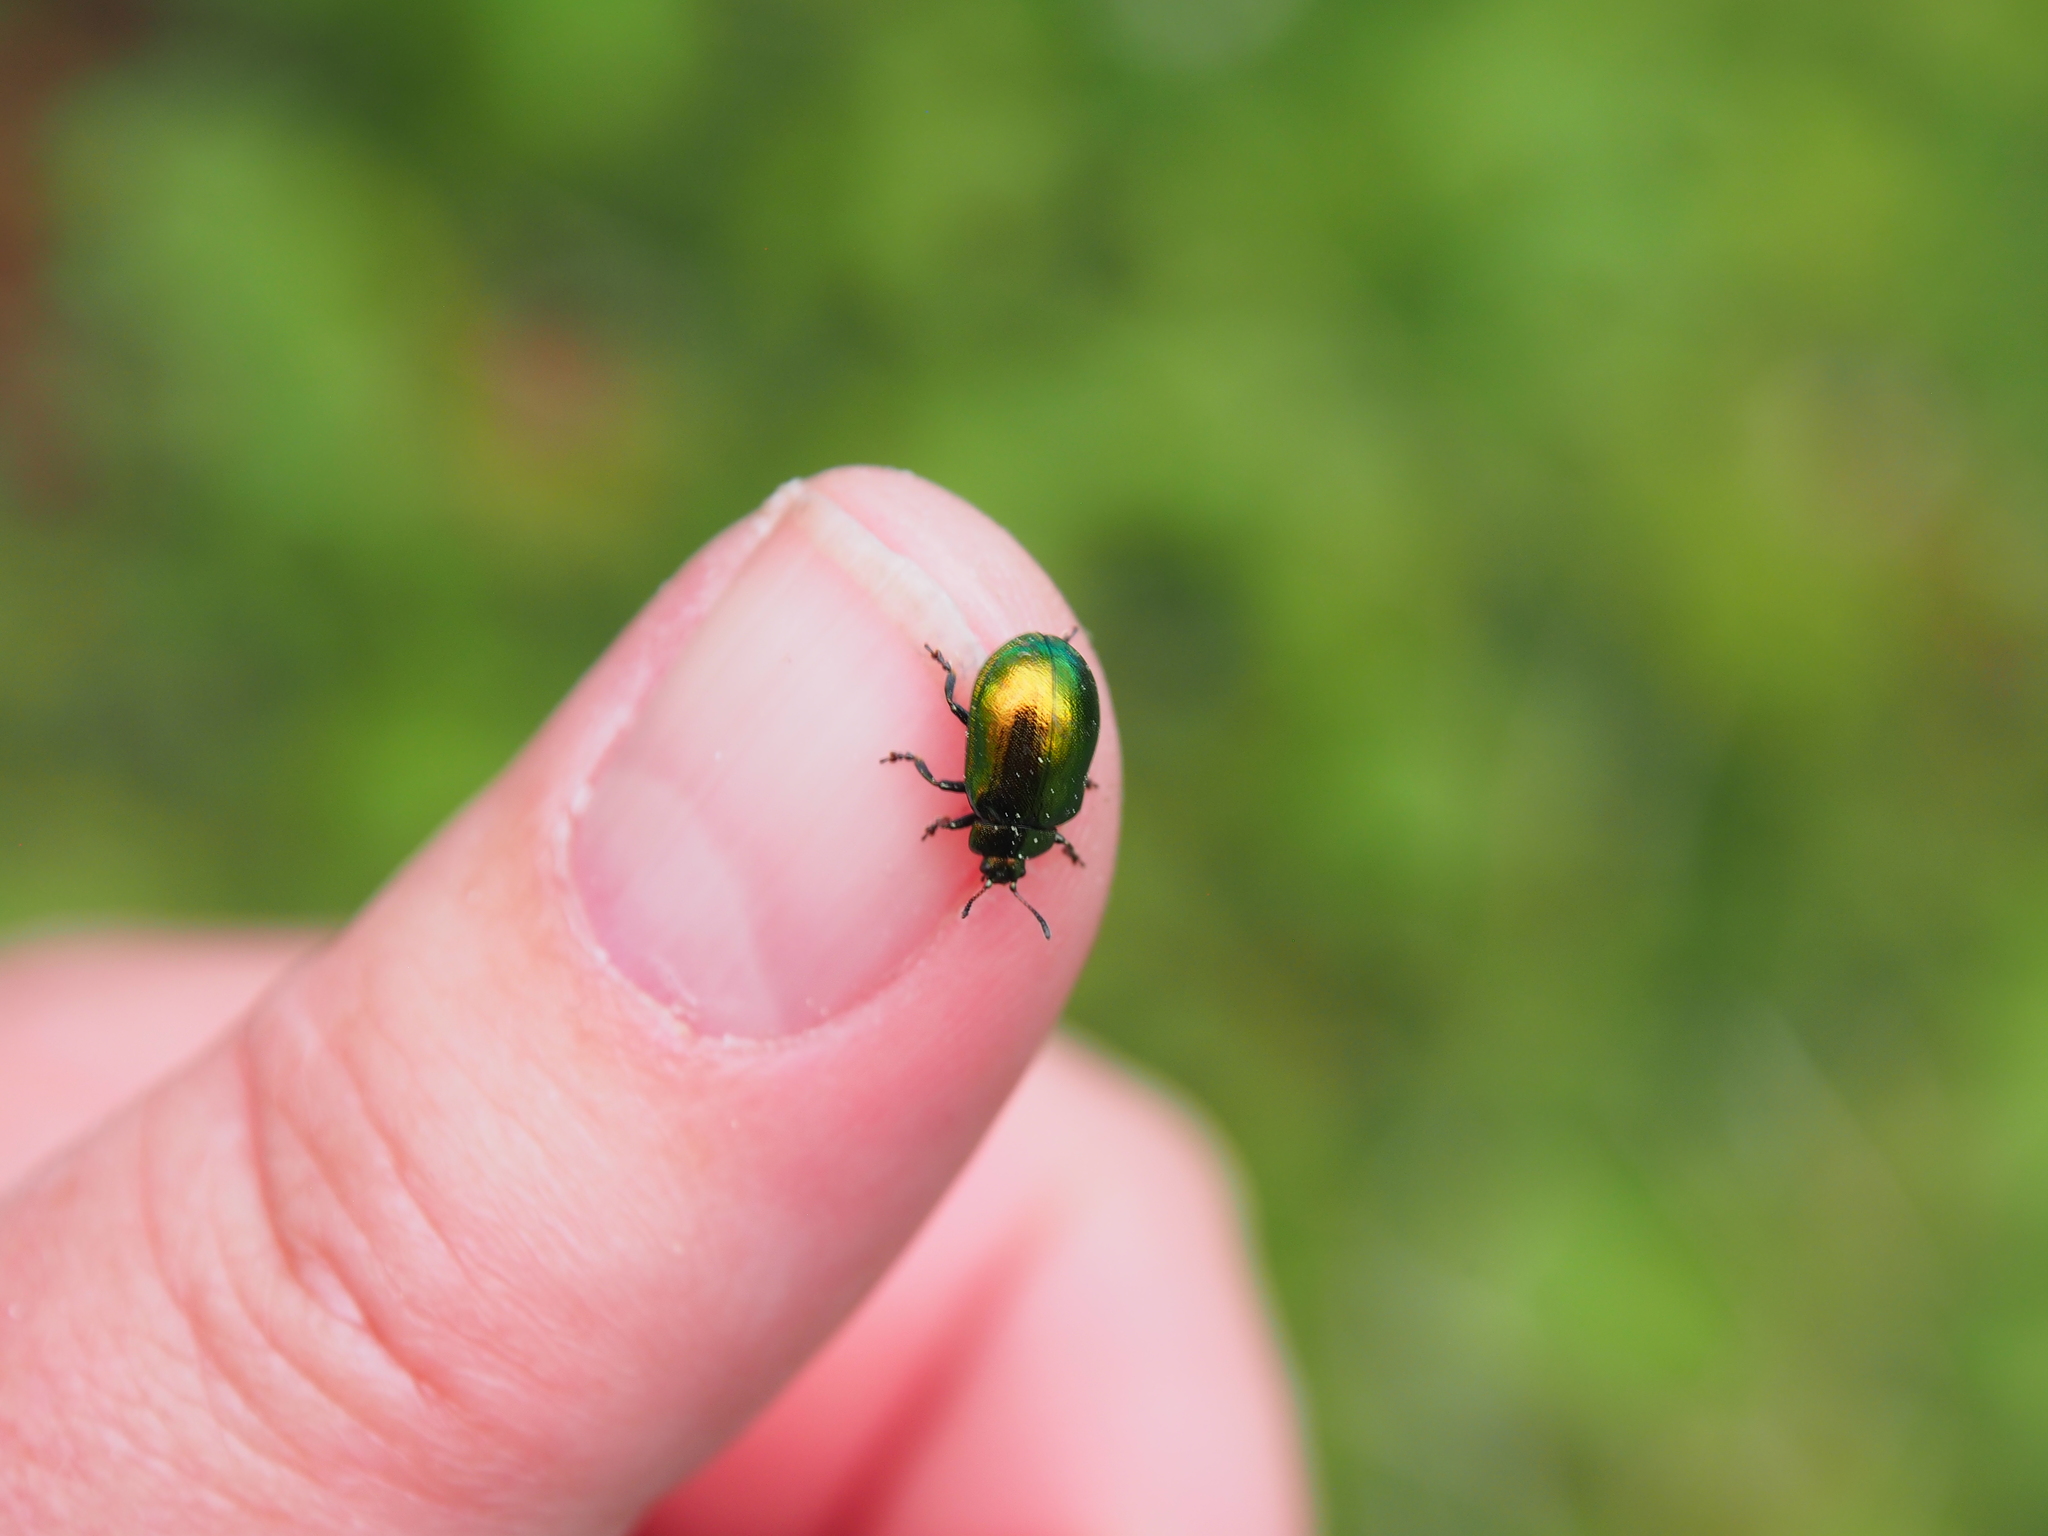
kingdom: Animalia
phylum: Arthropoda
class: Insecta
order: Coleoptera
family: Chrysomelidae
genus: Plagiosterna
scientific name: Plagiosterna aenea
